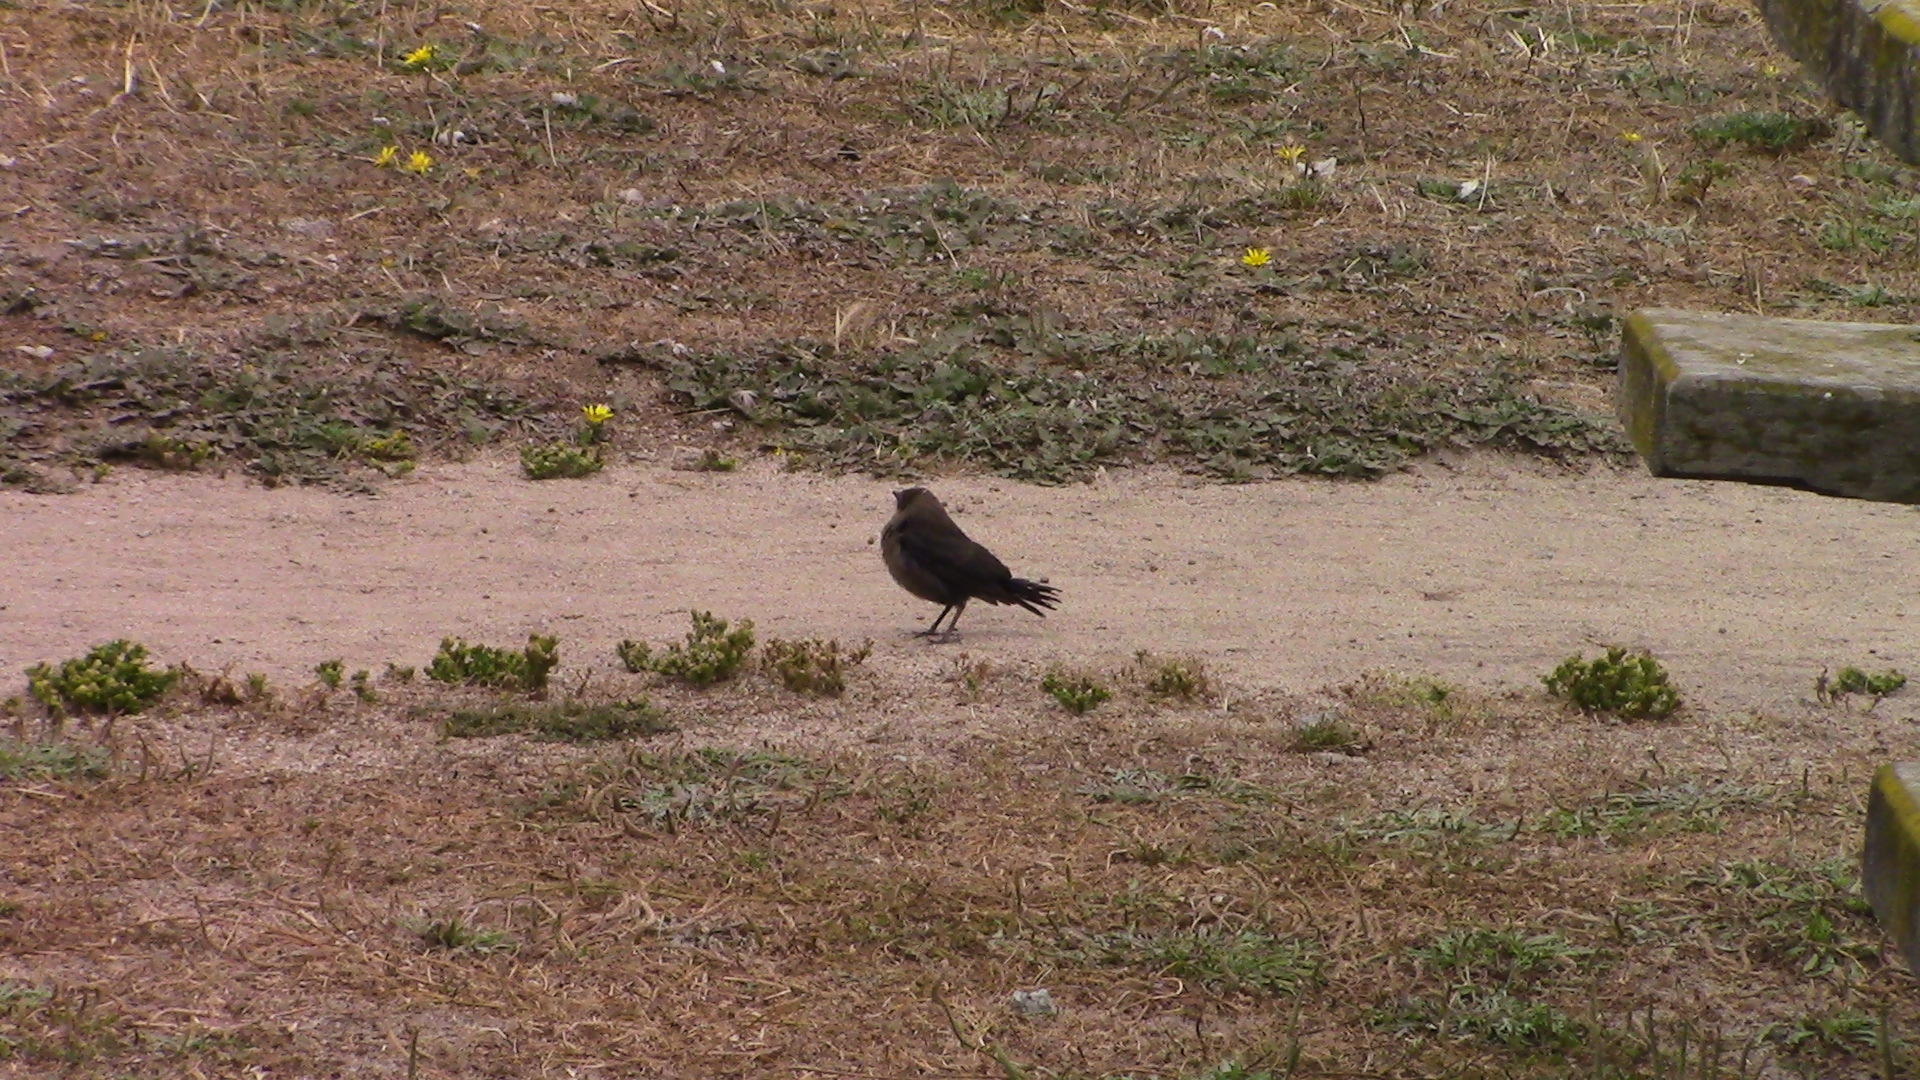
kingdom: Animalia
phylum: Chordata
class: Aves
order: Passeriformes
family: Icteridae
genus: Euphagus
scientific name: Euphagus cyanocephalus
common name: Brewer's blackbird
